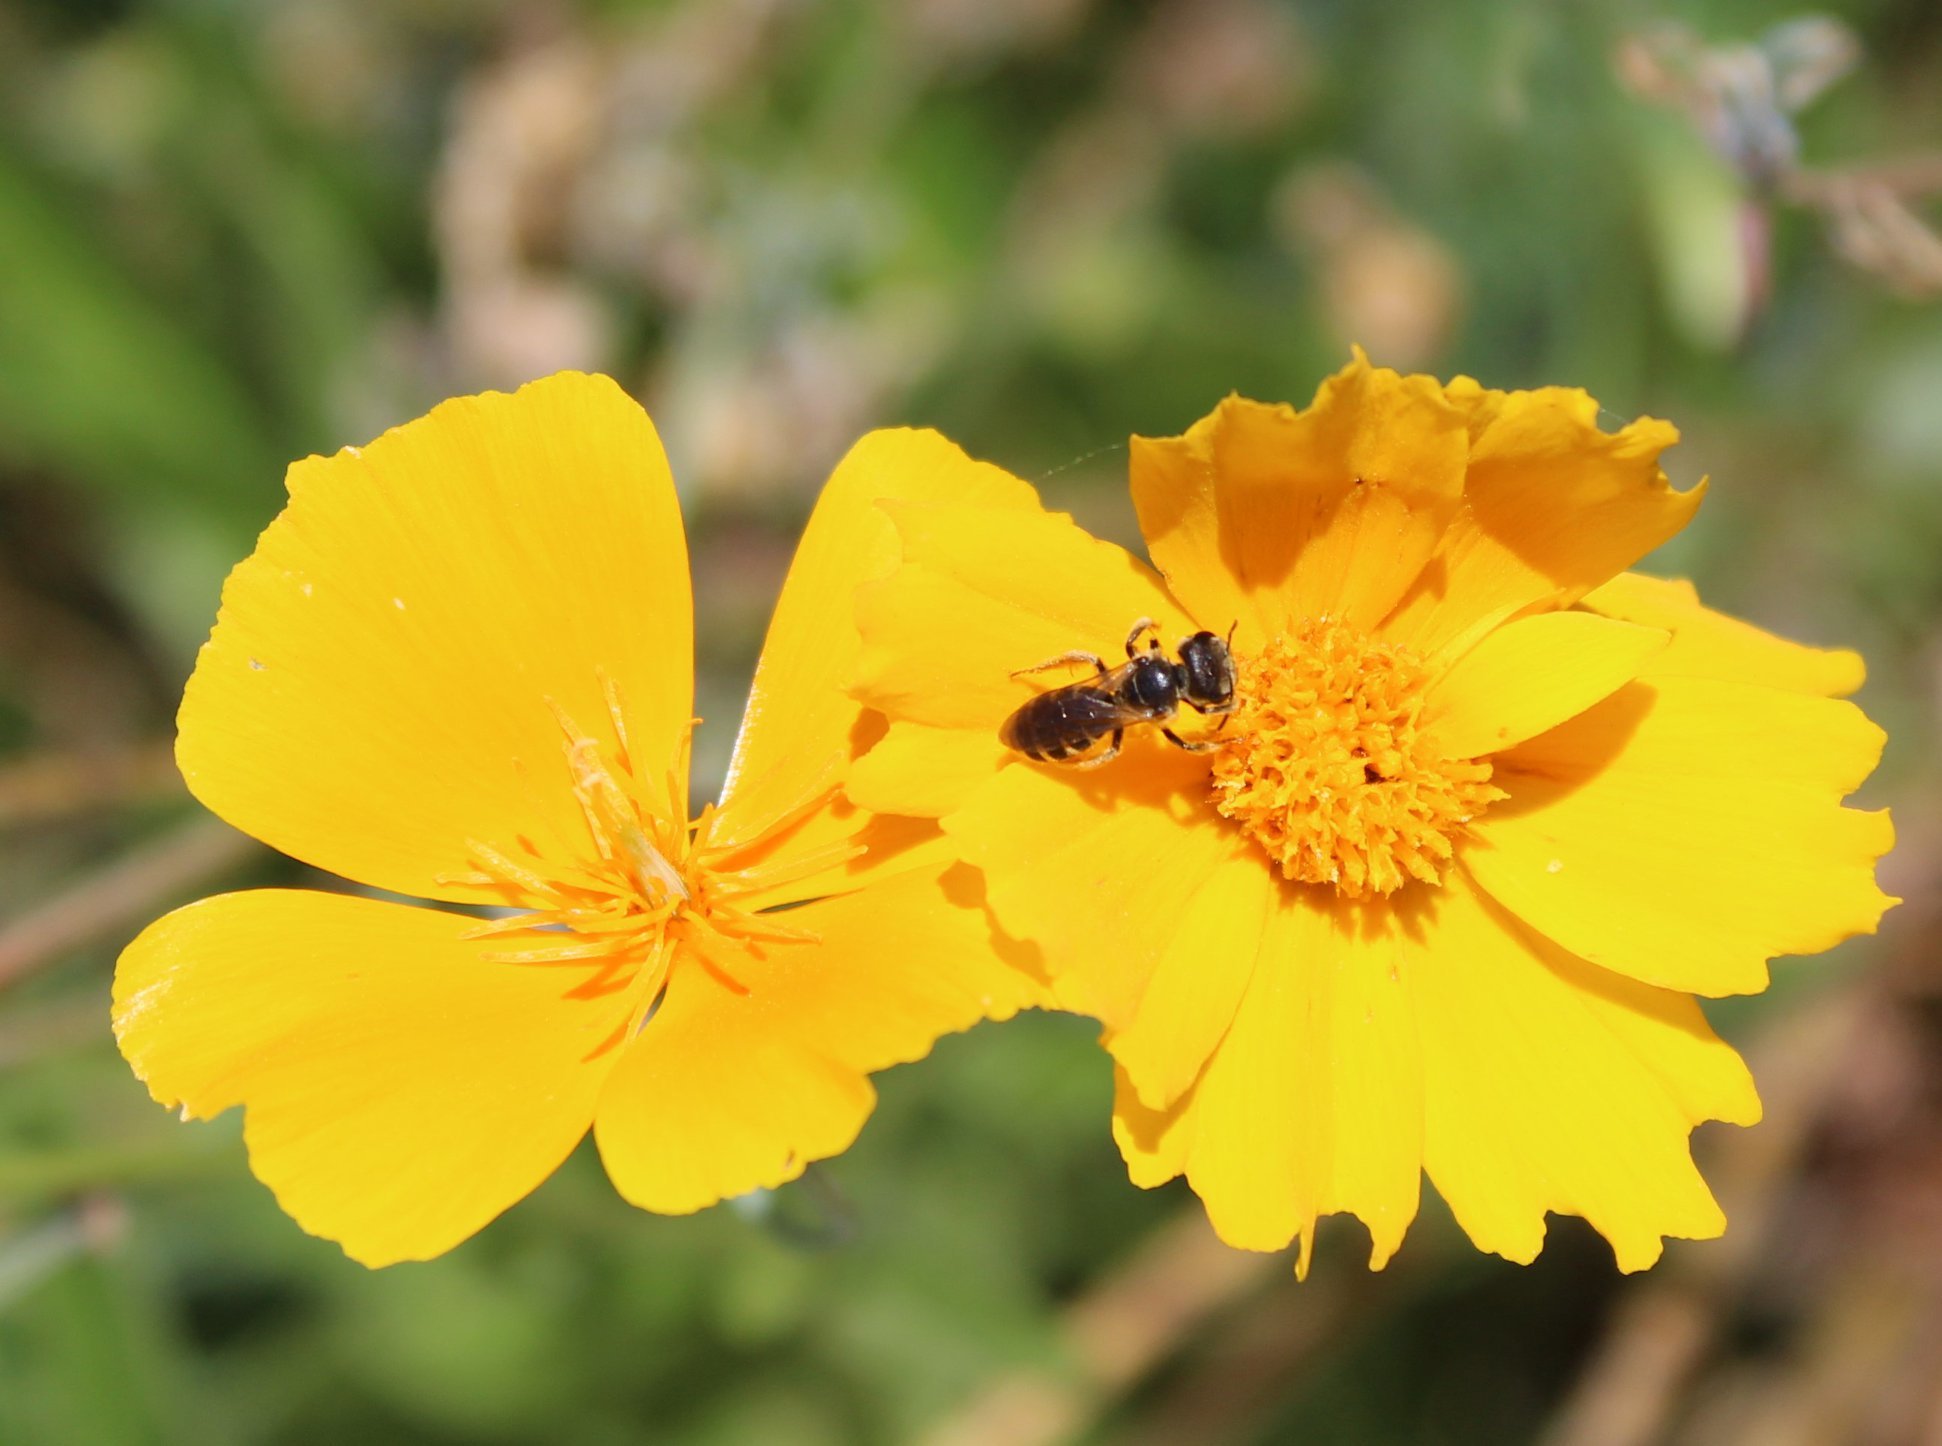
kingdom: Animalia
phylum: Arthropoda
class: Insecta
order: Hymenoptera
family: Halictidae
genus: Halictus
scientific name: Halictus ligatus
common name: Ligated furrow bee
